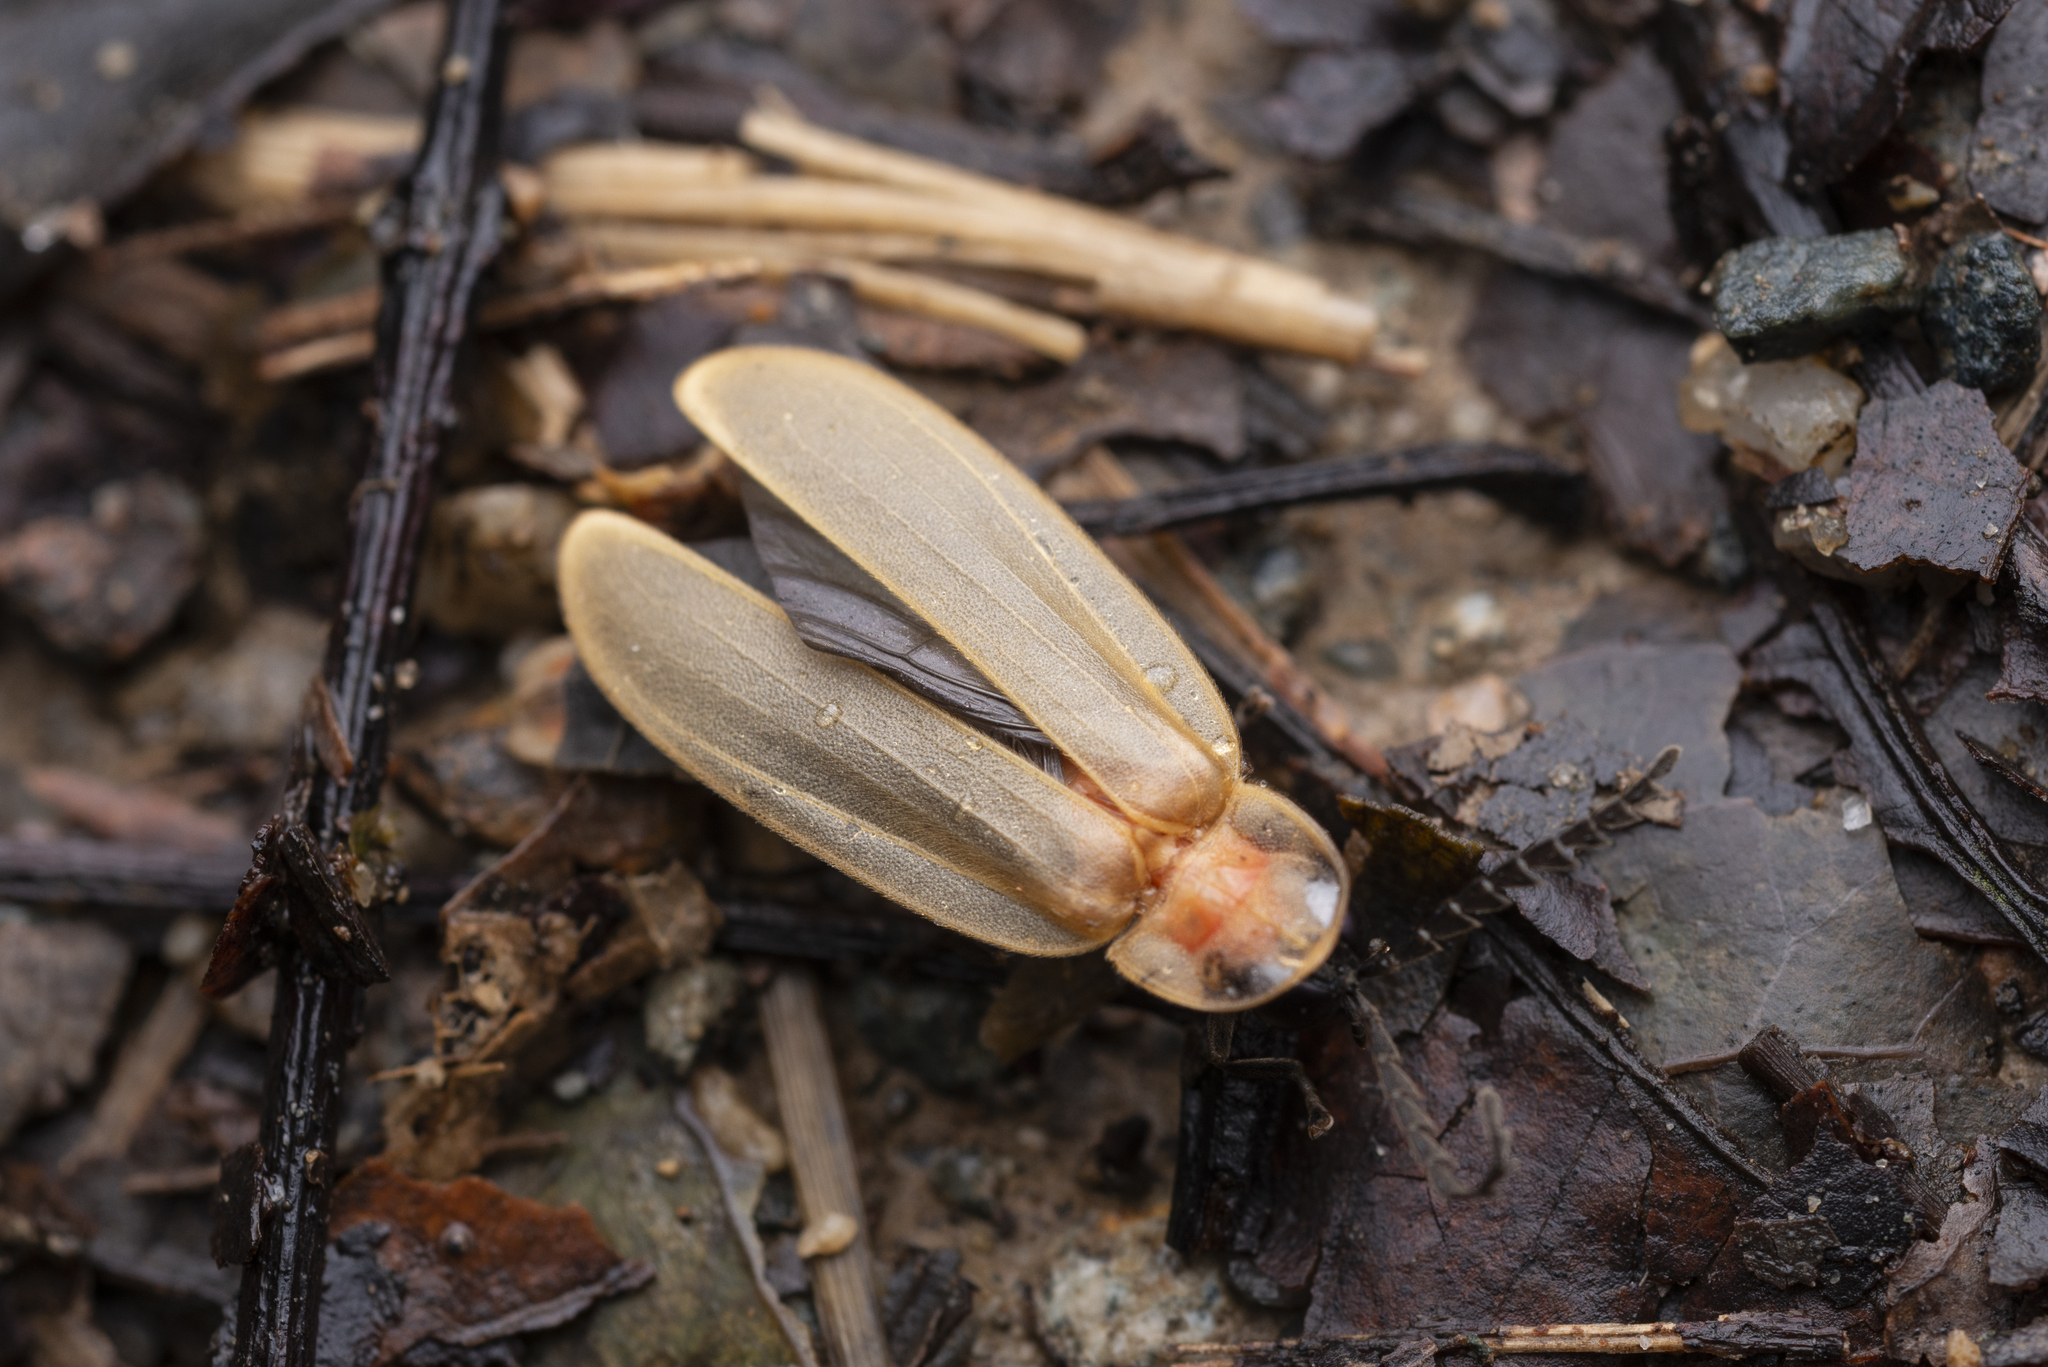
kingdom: Animalia
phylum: Arthropoda
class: Insecta
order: Coleoptera
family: Lampyridae
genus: Pyrocoelia
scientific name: Pyrocoelia lunata
